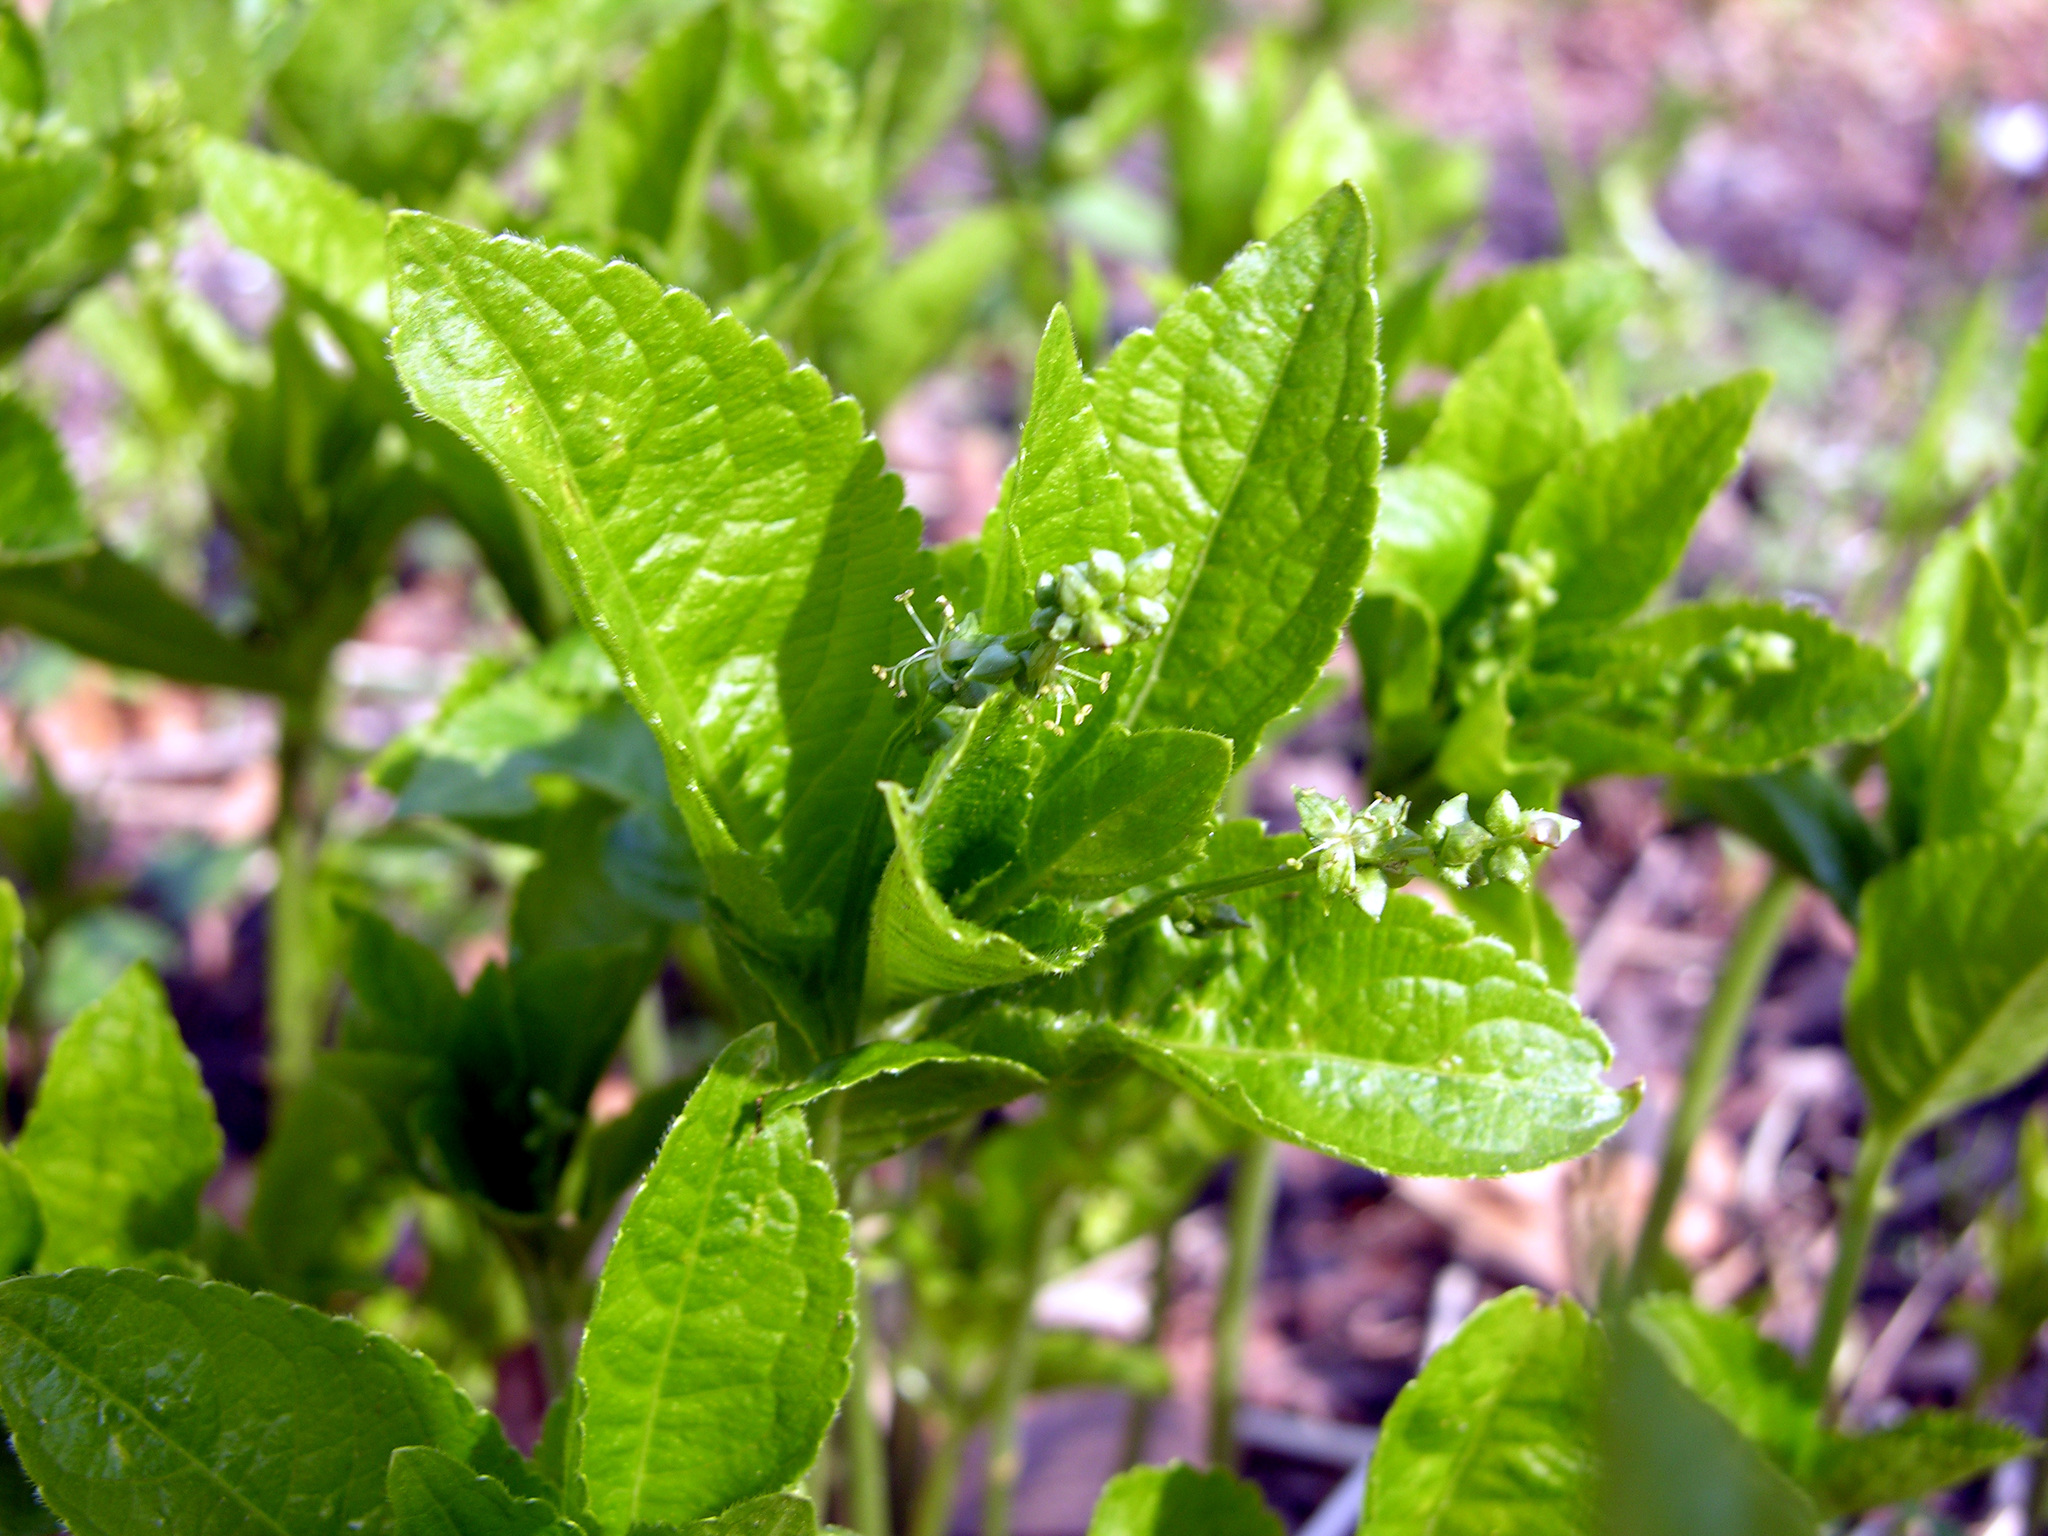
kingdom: Plantae
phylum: Tracheophyta
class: Magnoliopsida
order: Malpighiales
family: Euphorbiaceae
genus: Mercurialis
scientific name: Mercurialis perennis
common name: Dog mercury
